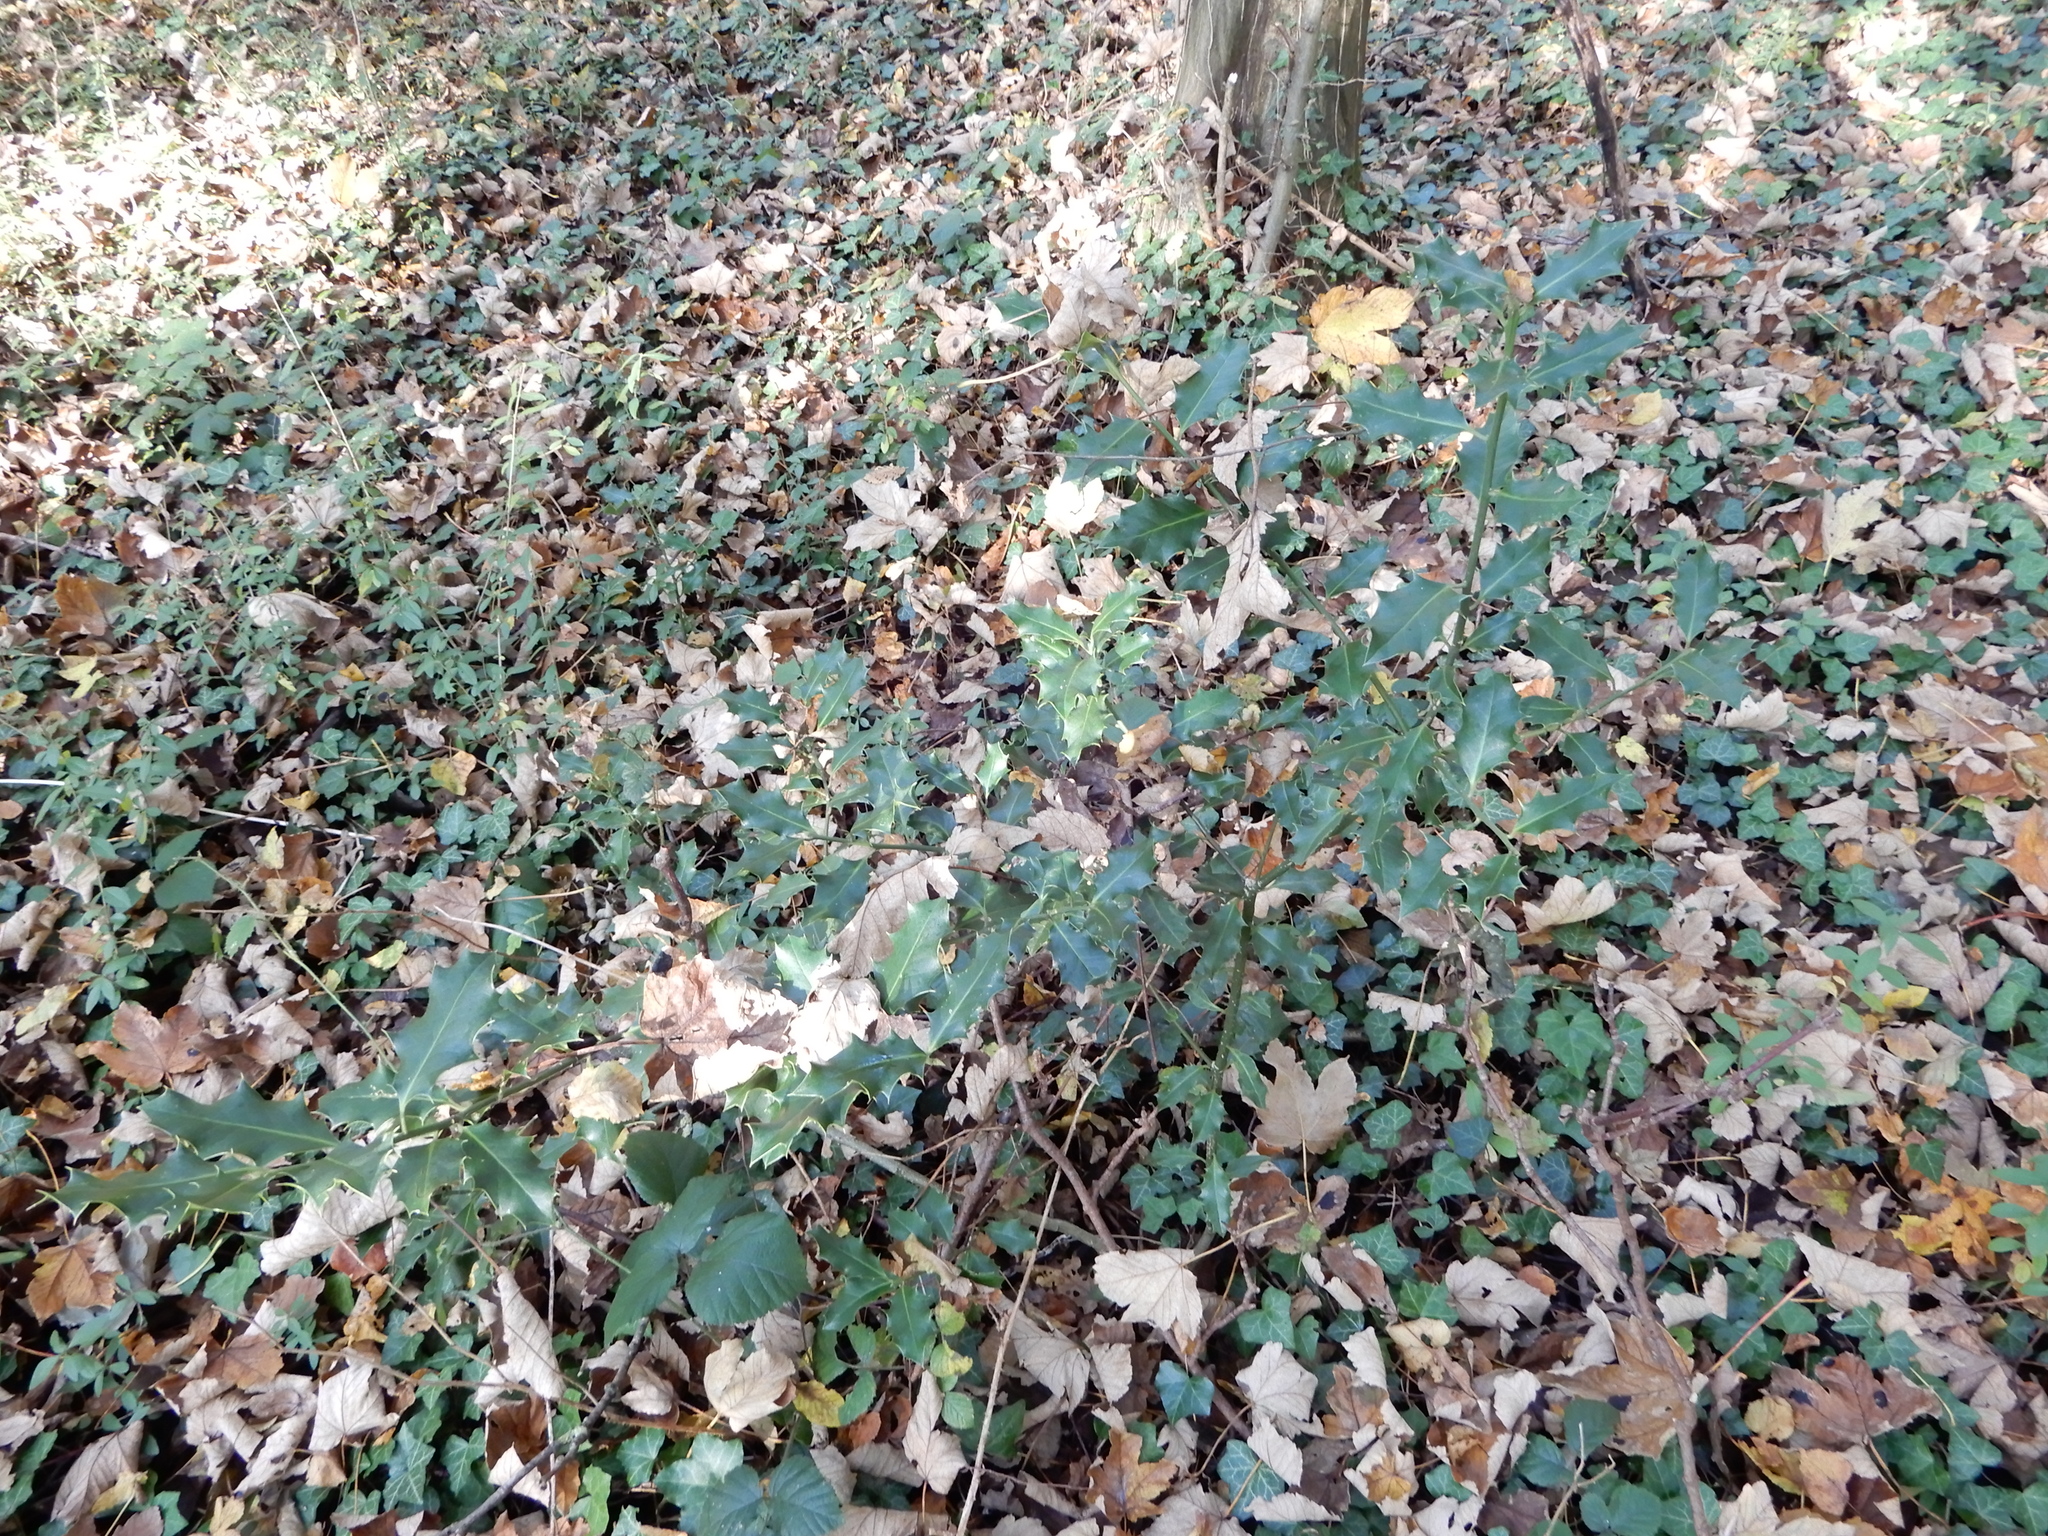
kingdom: Plantae
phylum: Tracheophyta
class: Magnoliopsida
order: Aquifoliales
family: Aquifoliaceae
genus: Ilex
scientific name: Ilex aquifolium
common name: English holly
